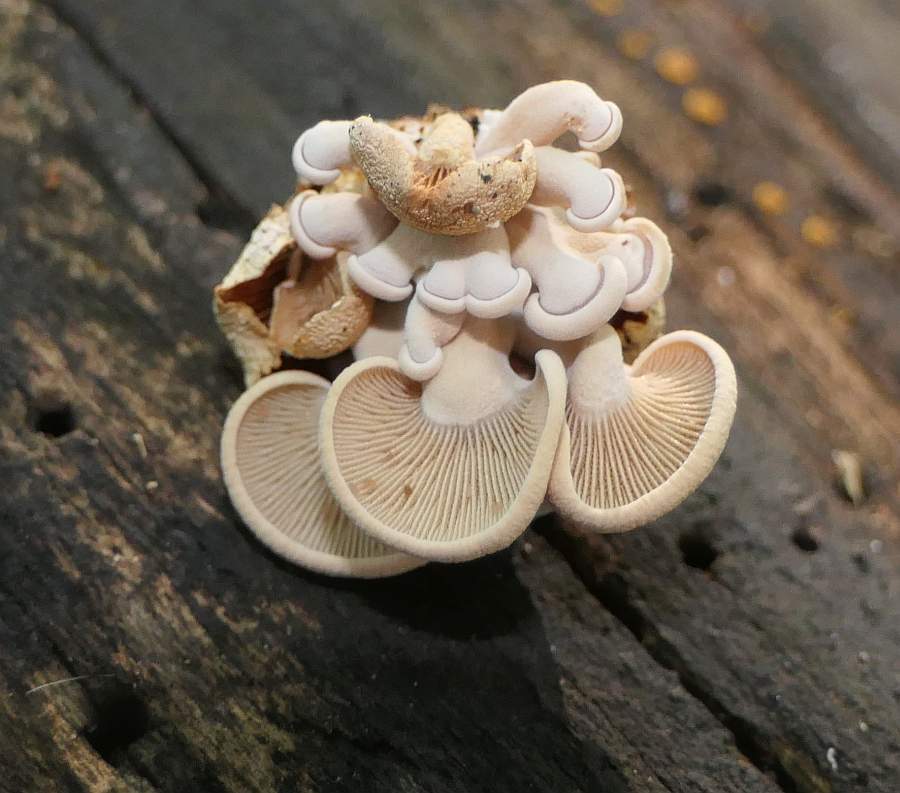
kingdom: Fungi
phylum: Basidiomycota
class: Agaricomycetes
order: Agaricales
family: Mycenaceae
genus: Panellus
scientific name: Panellus stipticus
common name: Bitter oysterling
